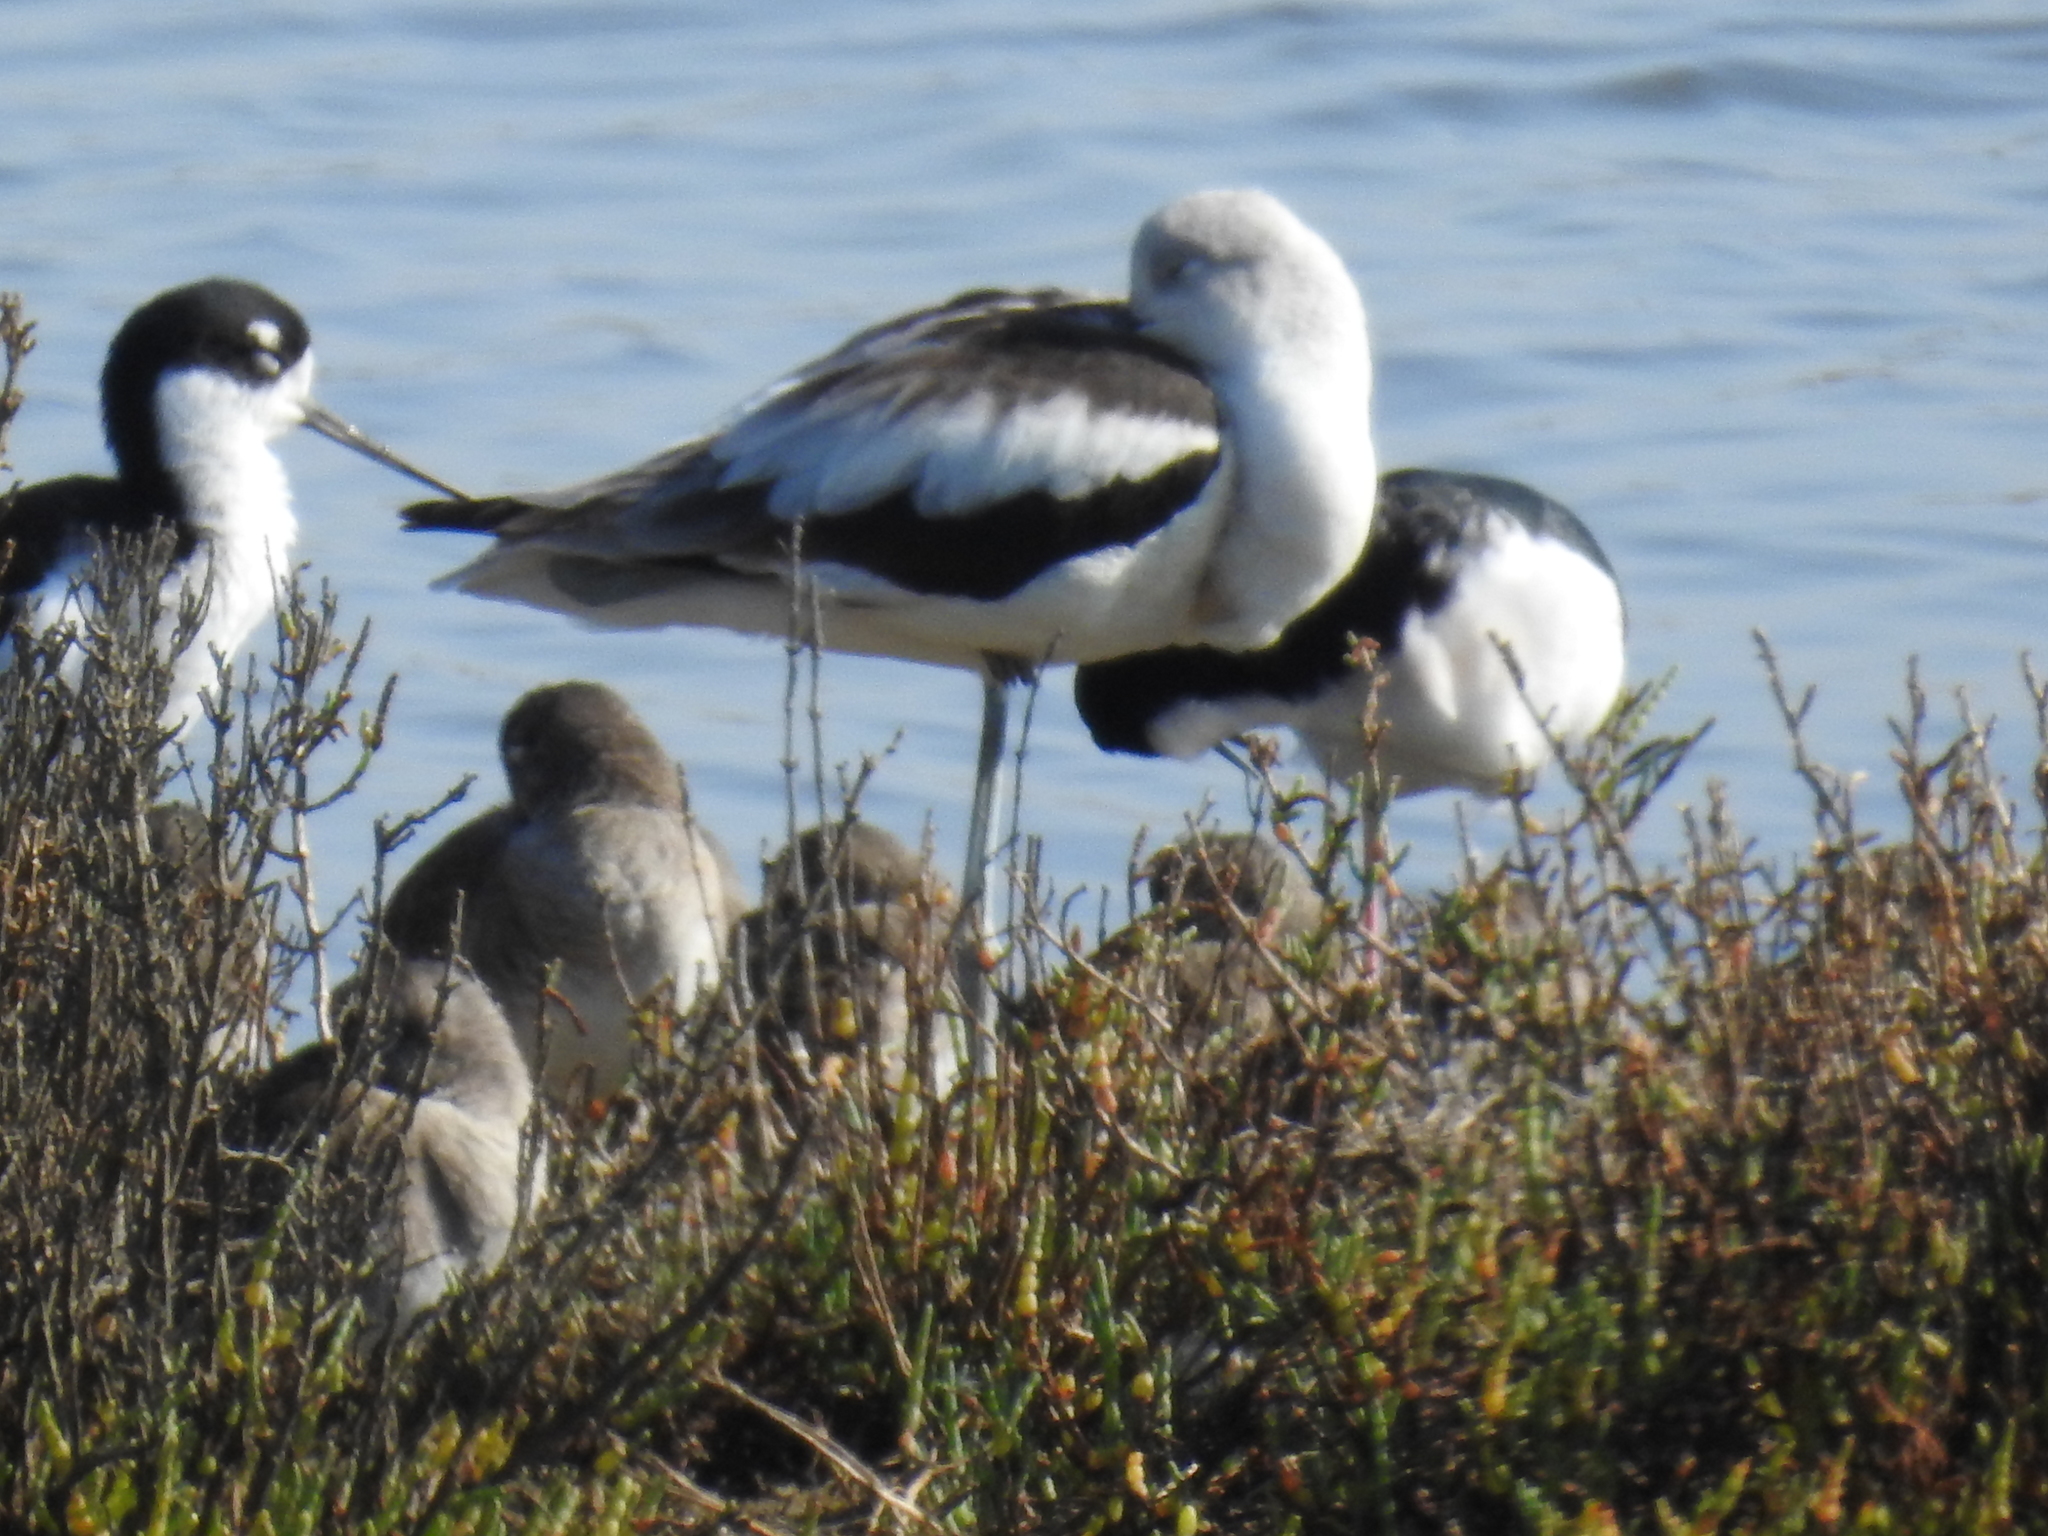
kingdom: Animalia
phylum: Chordata
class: Aves
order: Charadriiformes
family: Recurvirostridae
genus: Recurvirostra
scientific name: Recurvirostra americana
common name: American avocet
